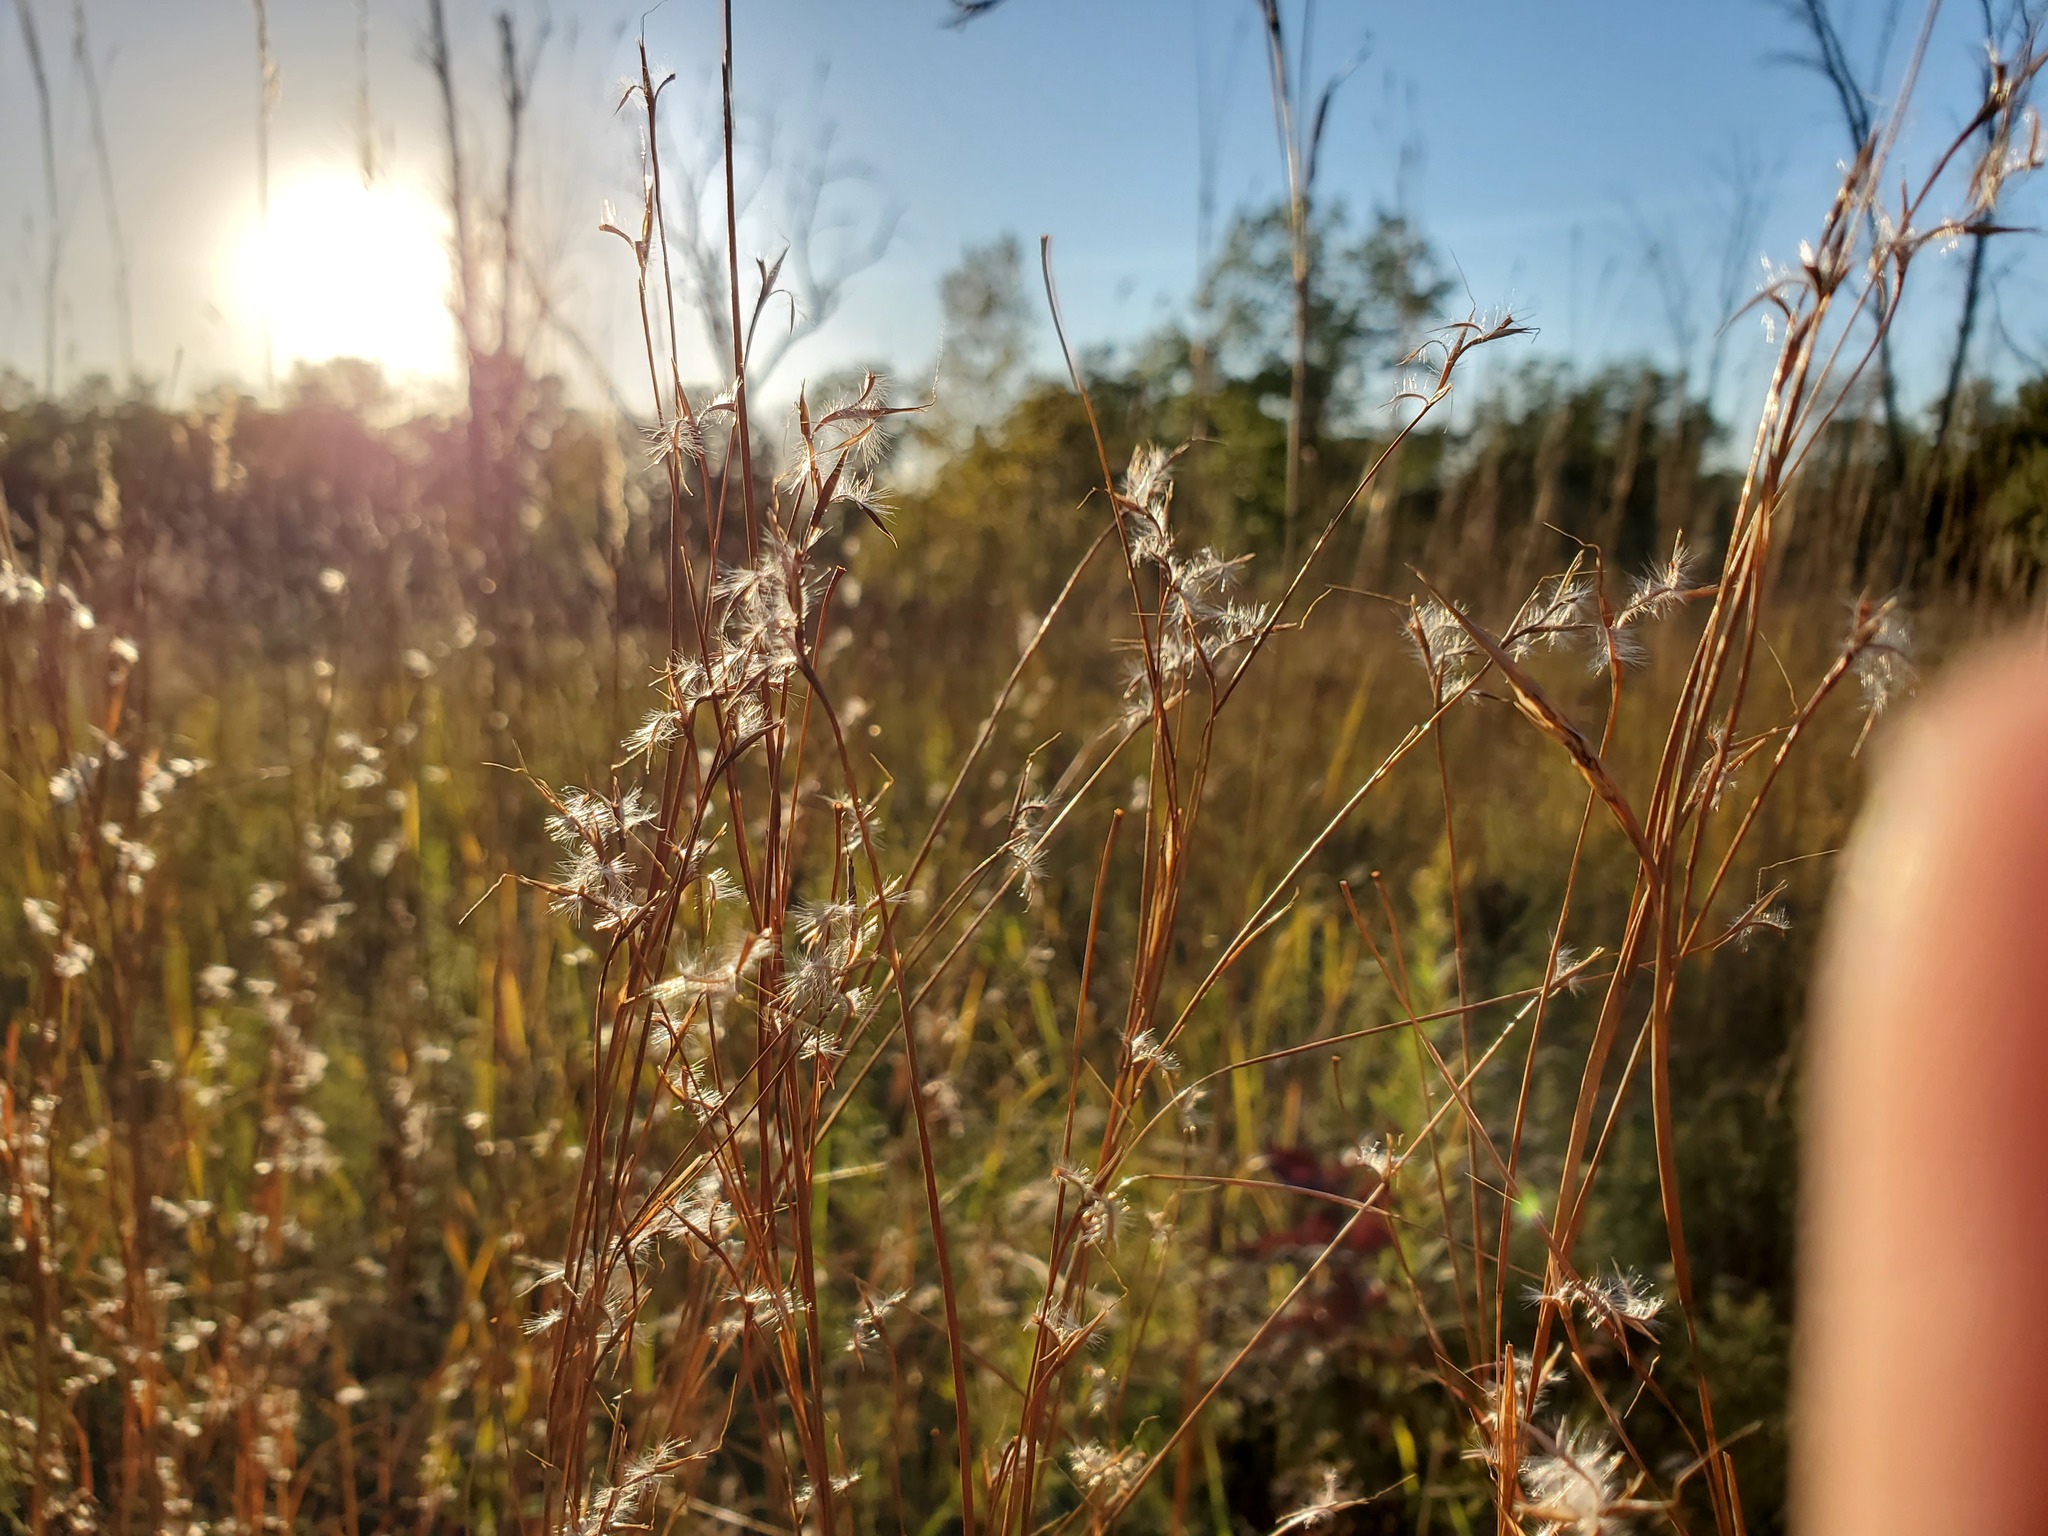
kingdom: Plantae
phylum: Tracheophyta
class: Liliopsida
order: Poales
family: Poaceae
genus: Schizachyrium
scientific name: Schizachyrium scoparium
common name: Little bluestem
